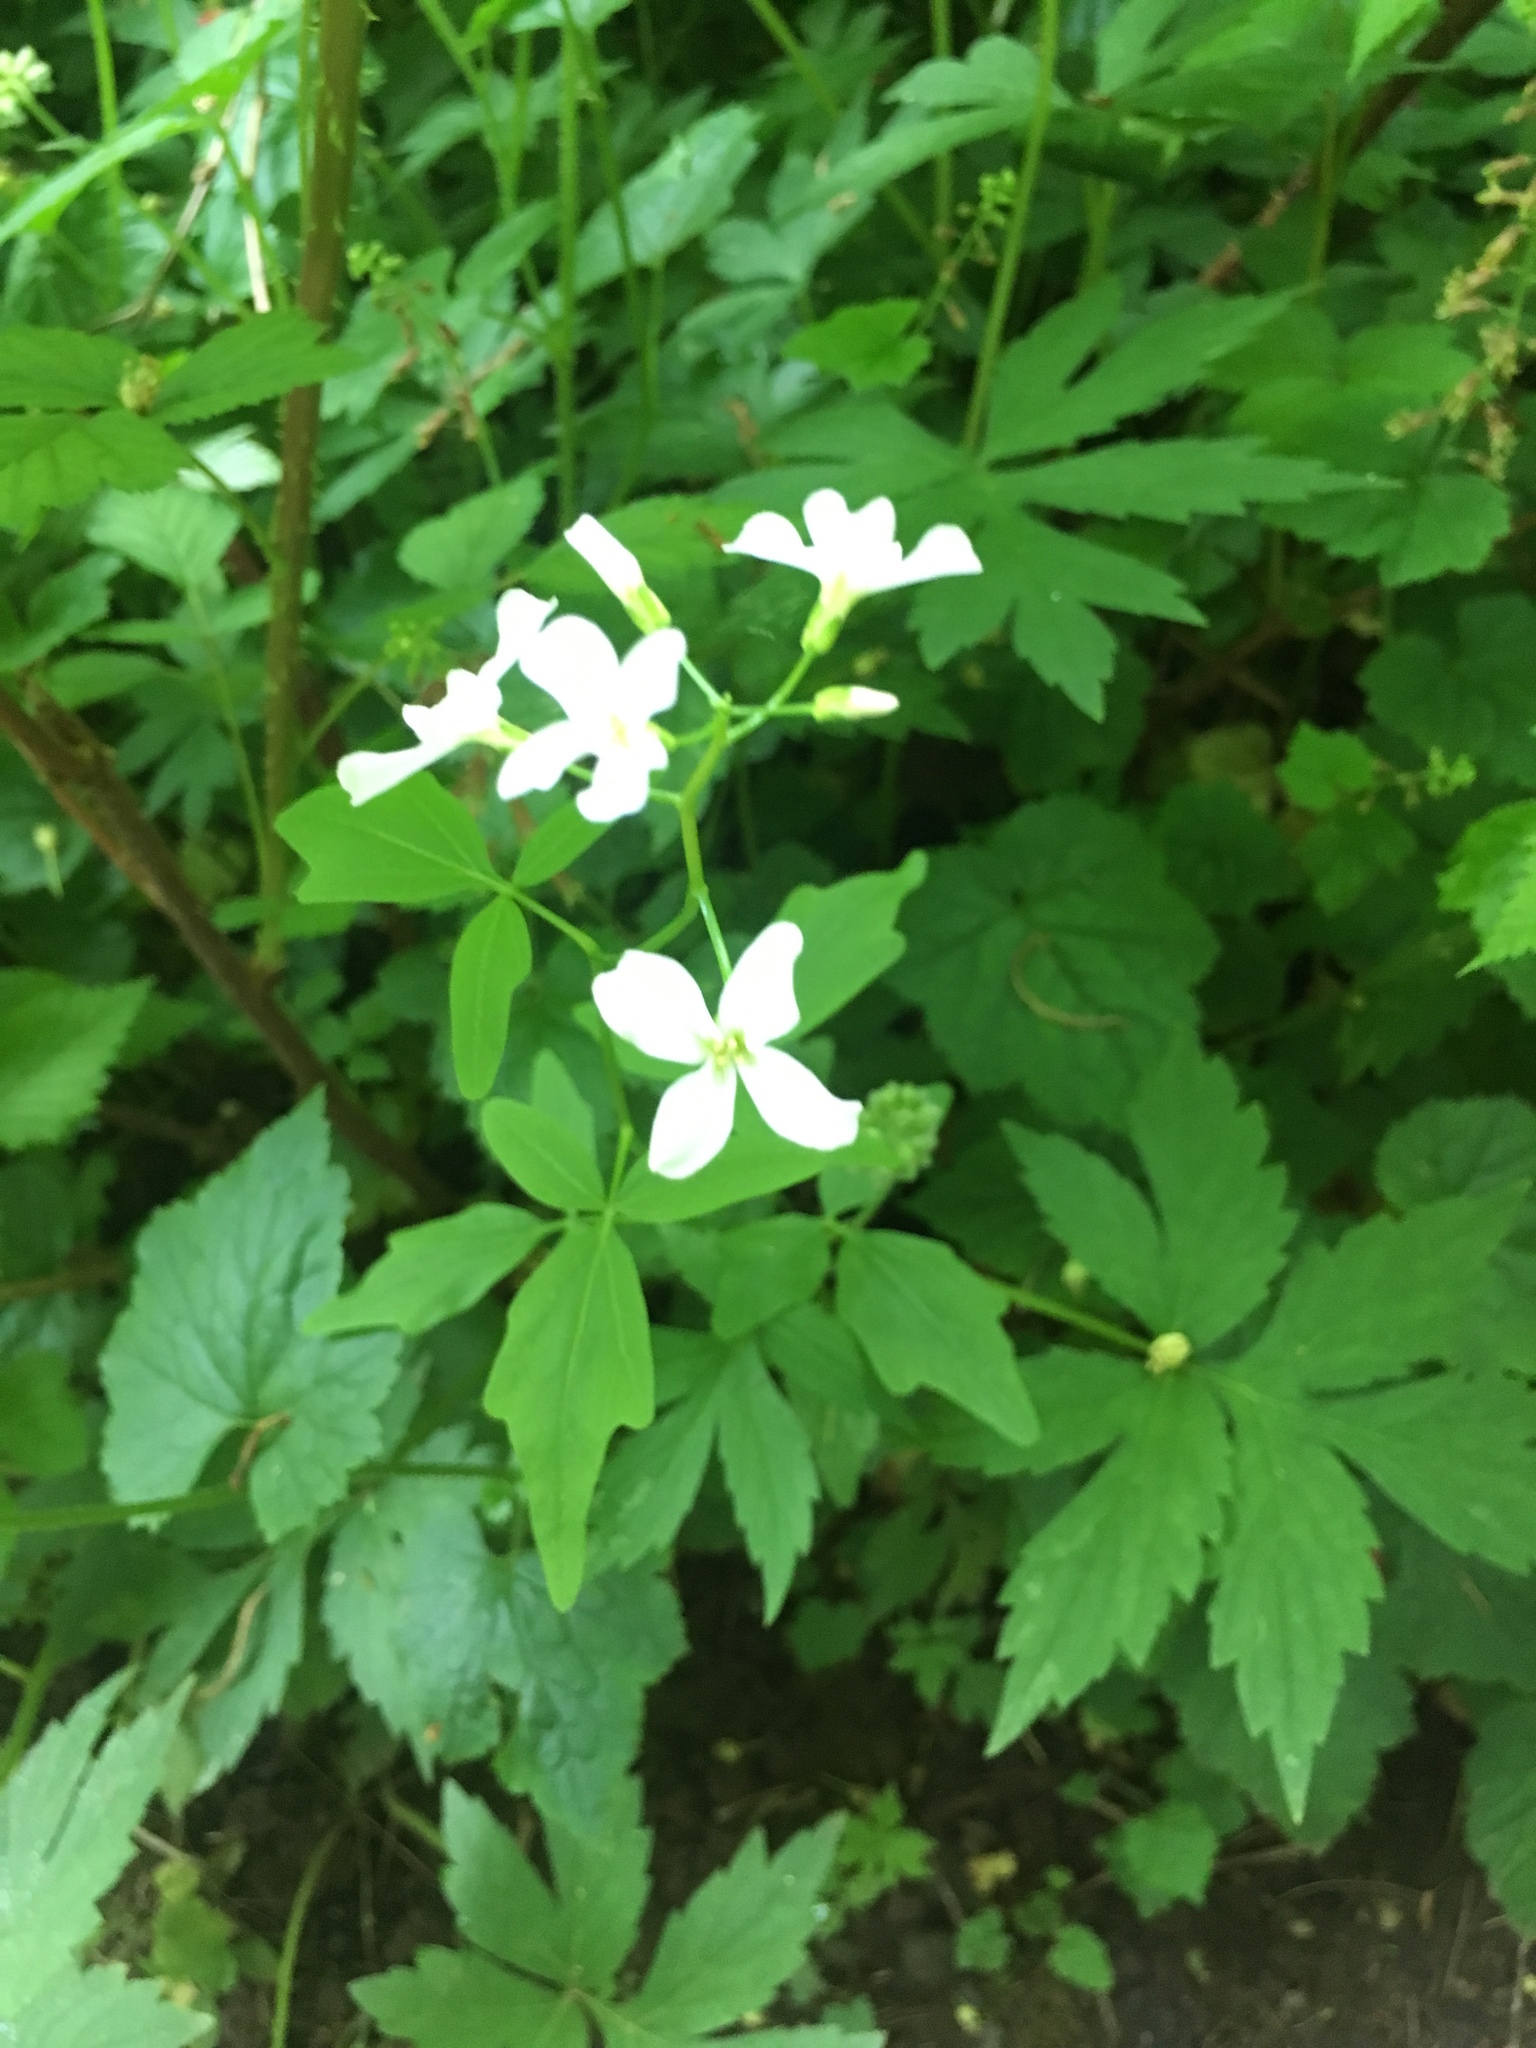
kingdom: Plantae
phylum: Tracheophyta
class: Magnoliopsida
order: Brassicales
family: Brassicaceae
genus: Cardamine
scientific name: Cardamine angulata
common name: Angled bittercress
